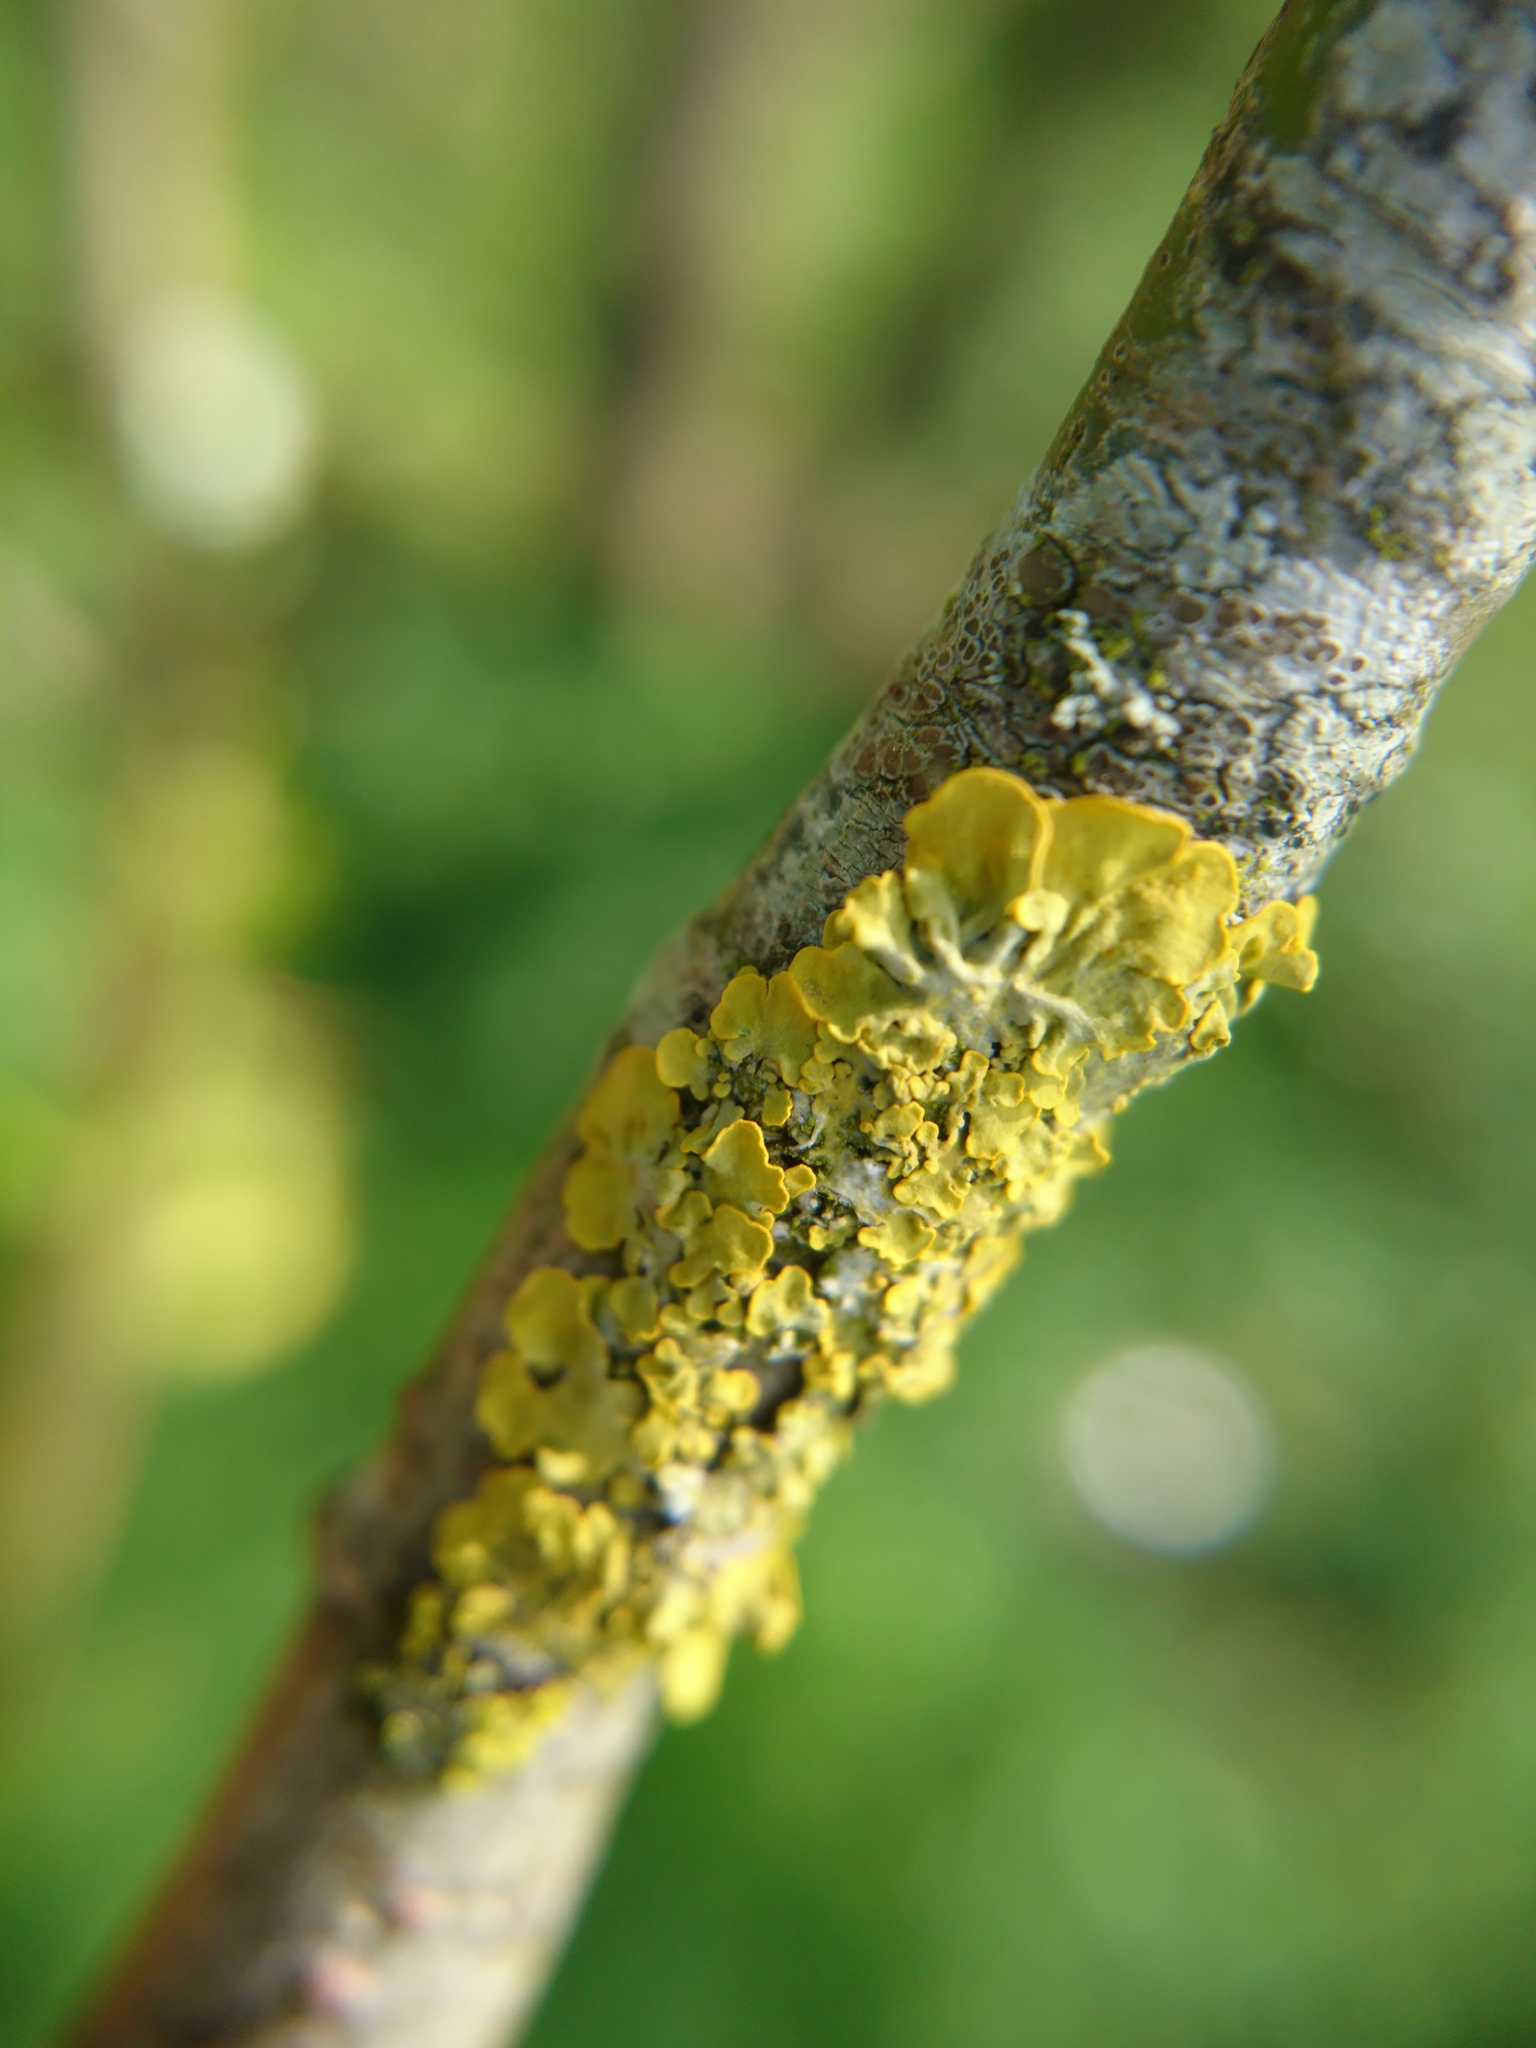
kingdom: Fungi
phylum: Ascomycota
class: Lecanoromycetes
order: Teloschistales
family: Teloschistaceae
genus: Xanthoria
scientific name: Xanthoria parietina
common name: Common orange lichen
